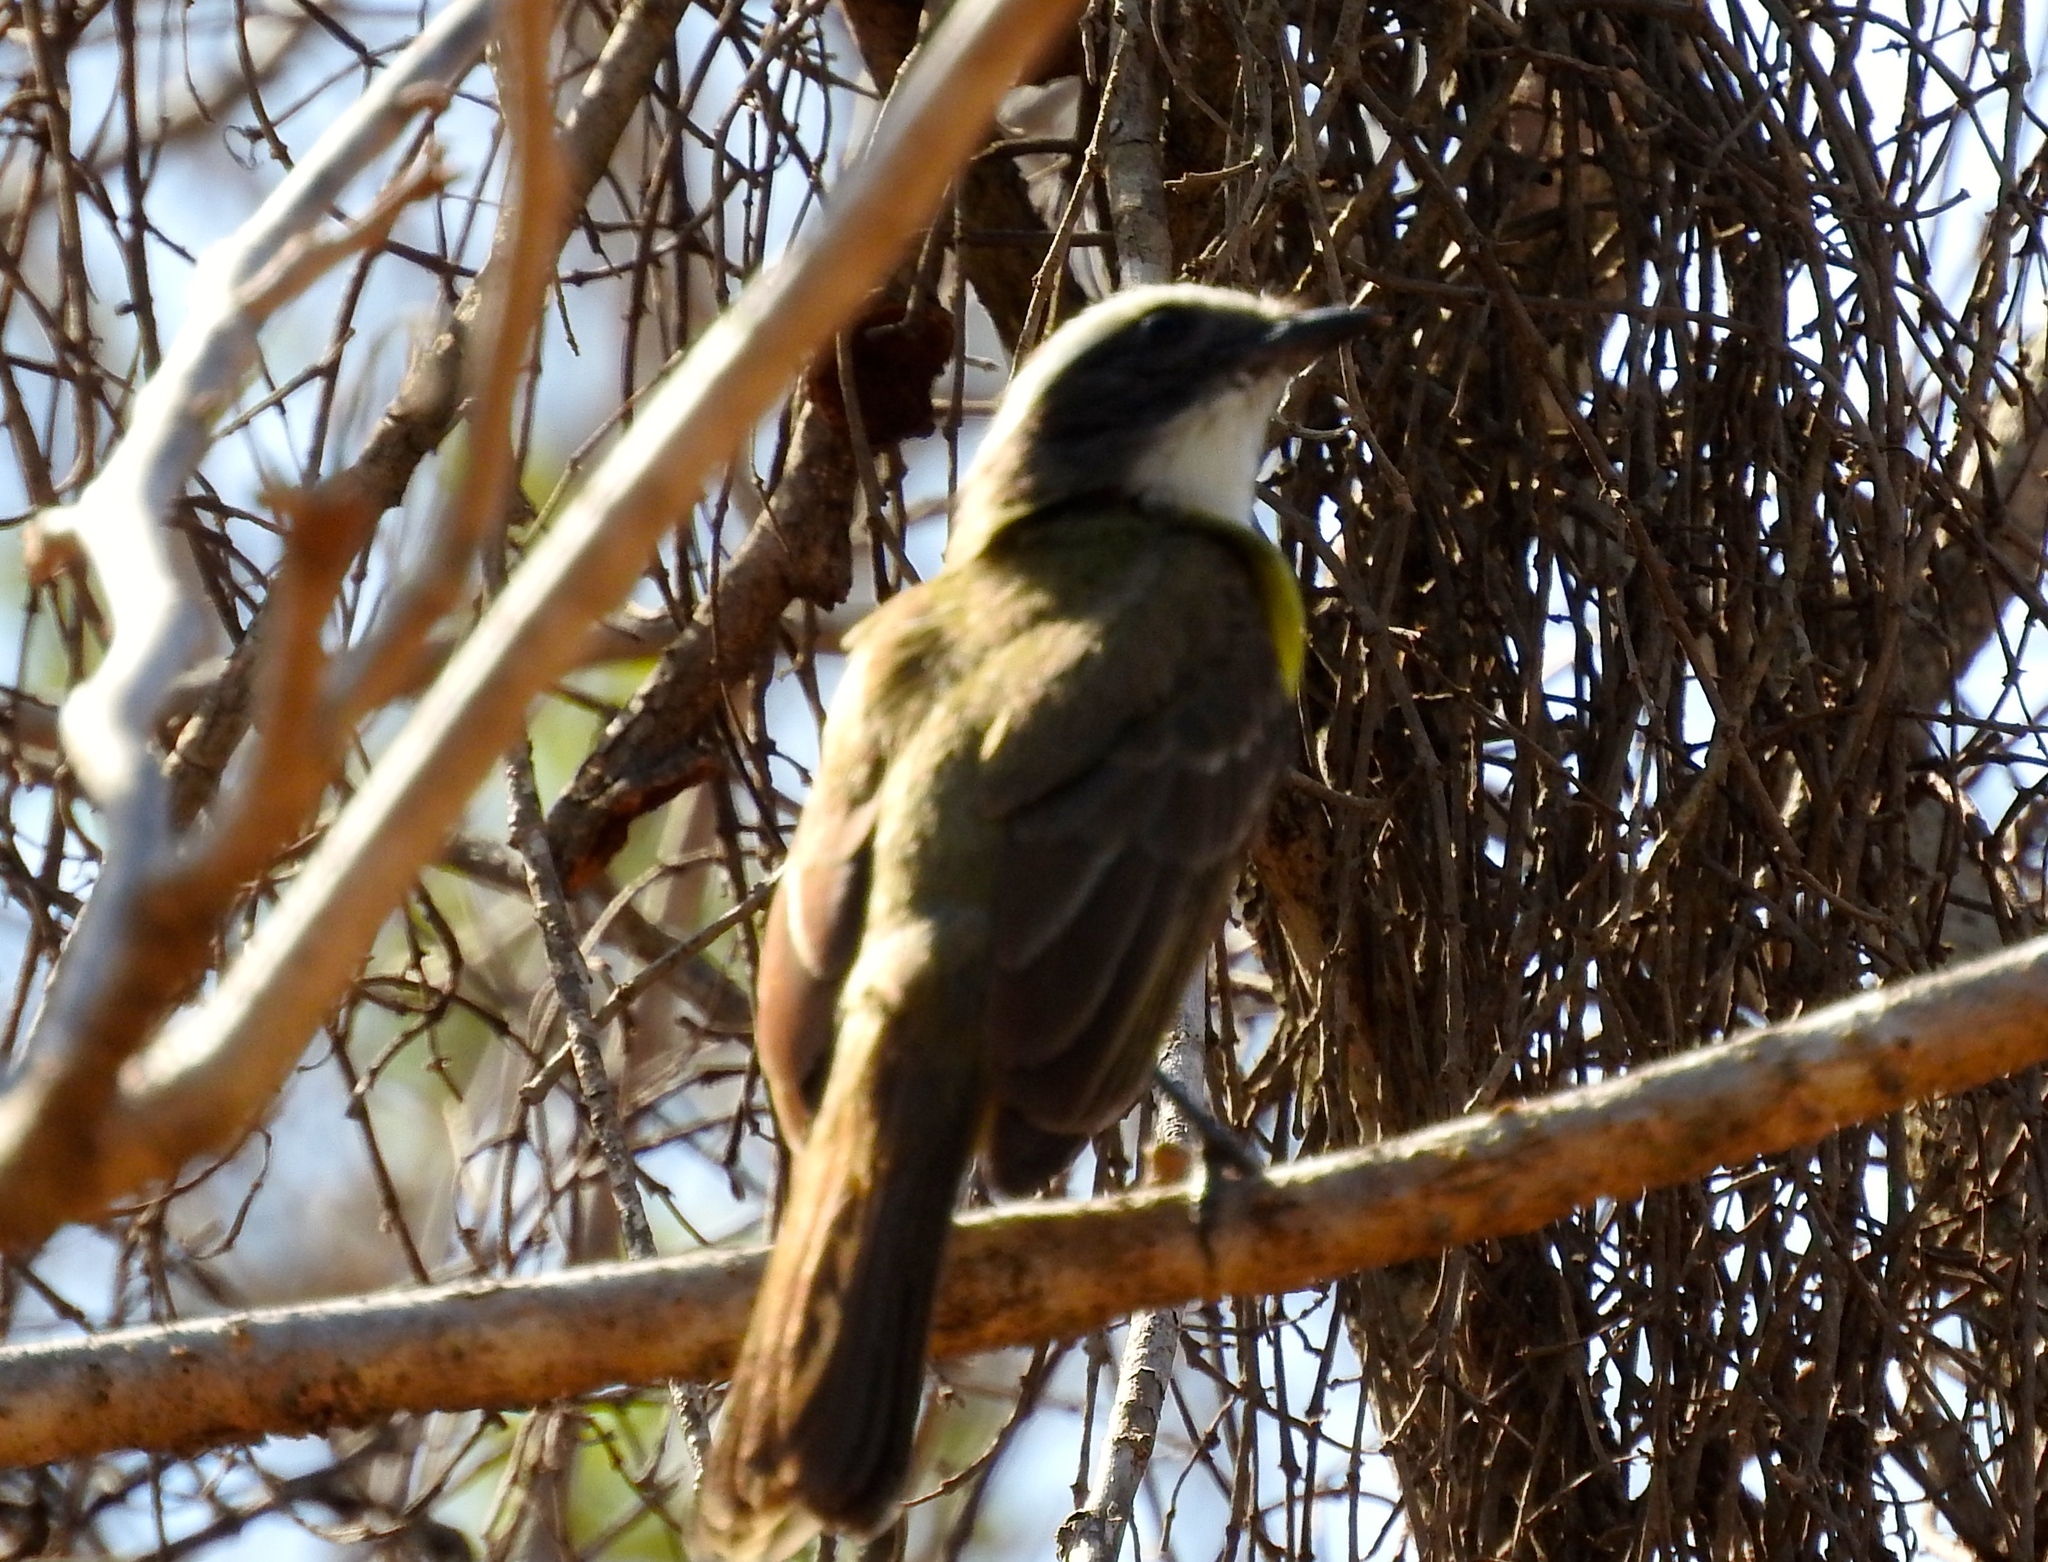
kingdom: Animalia
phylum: Chordata
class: Aves
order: Passeriformes
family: Tyrannidae
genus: Myiozetetes
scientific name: Myiozetetes similis
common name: Social flycatcher
